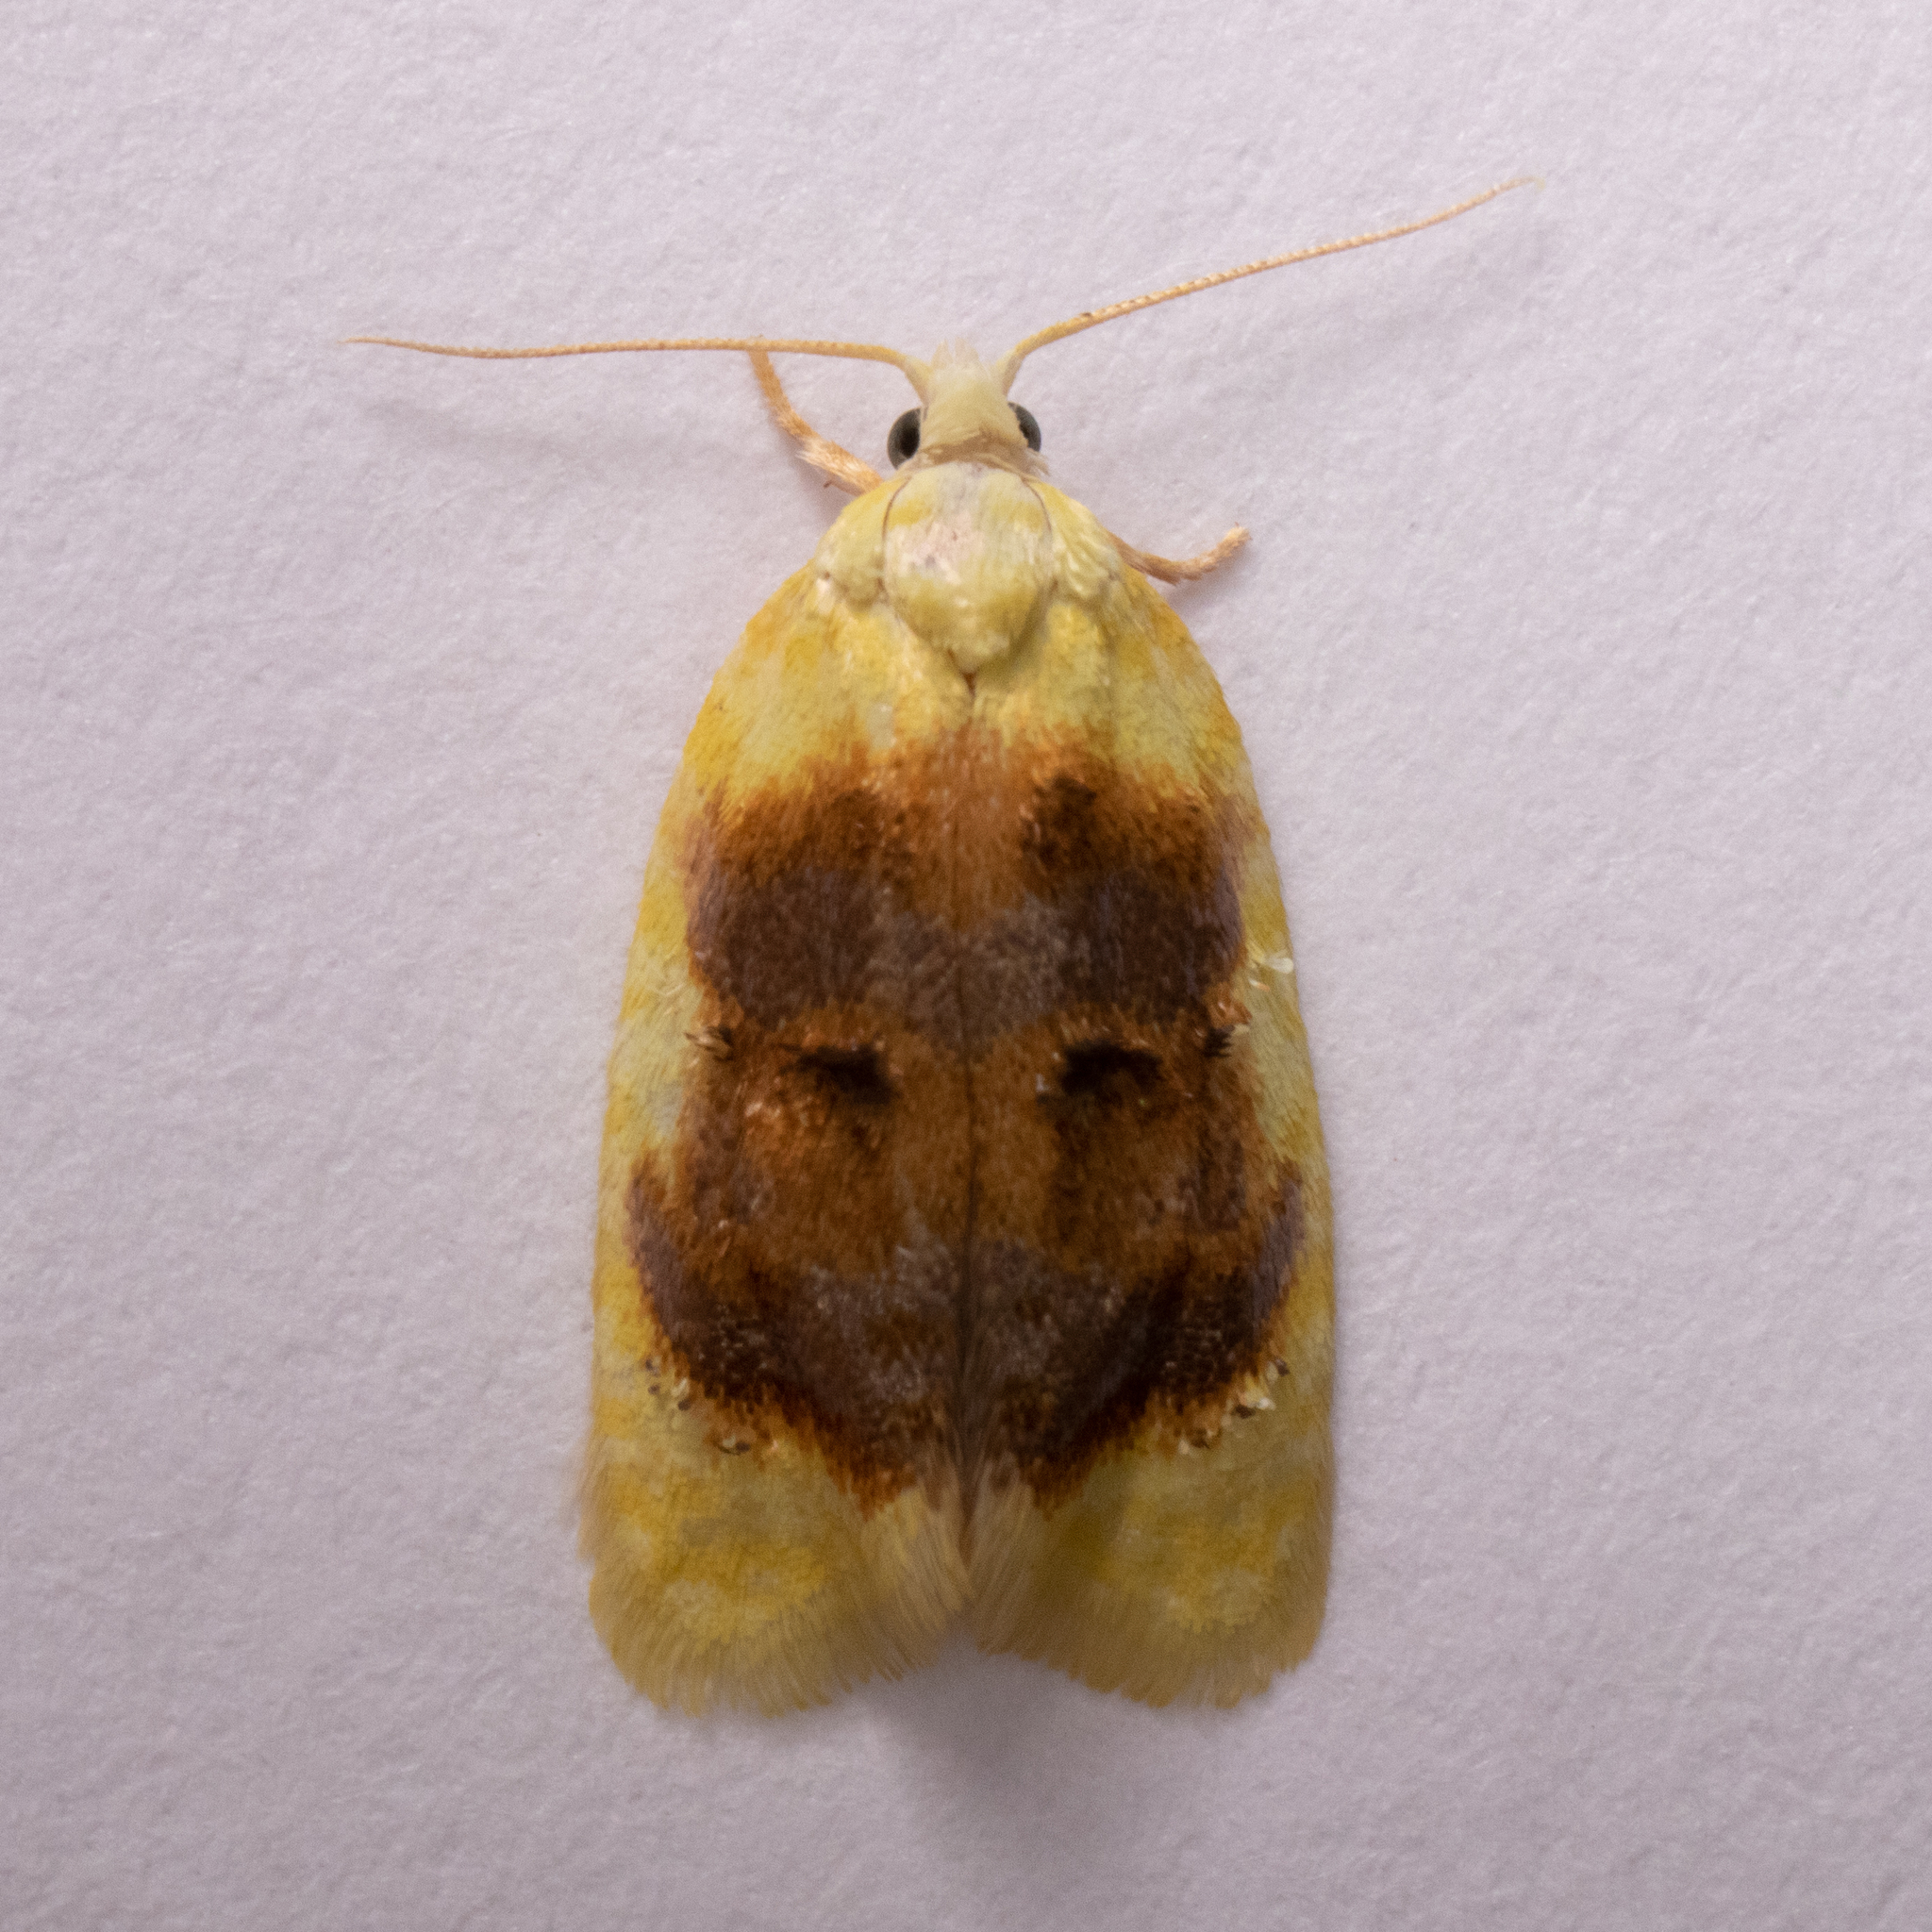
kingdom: Animalia
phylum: Arthropoda
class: Insecta
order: Lepidoptera
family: Tortricidae
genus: Acleris
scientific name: Acleris semipurpurana
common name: Oak leaftier moth
